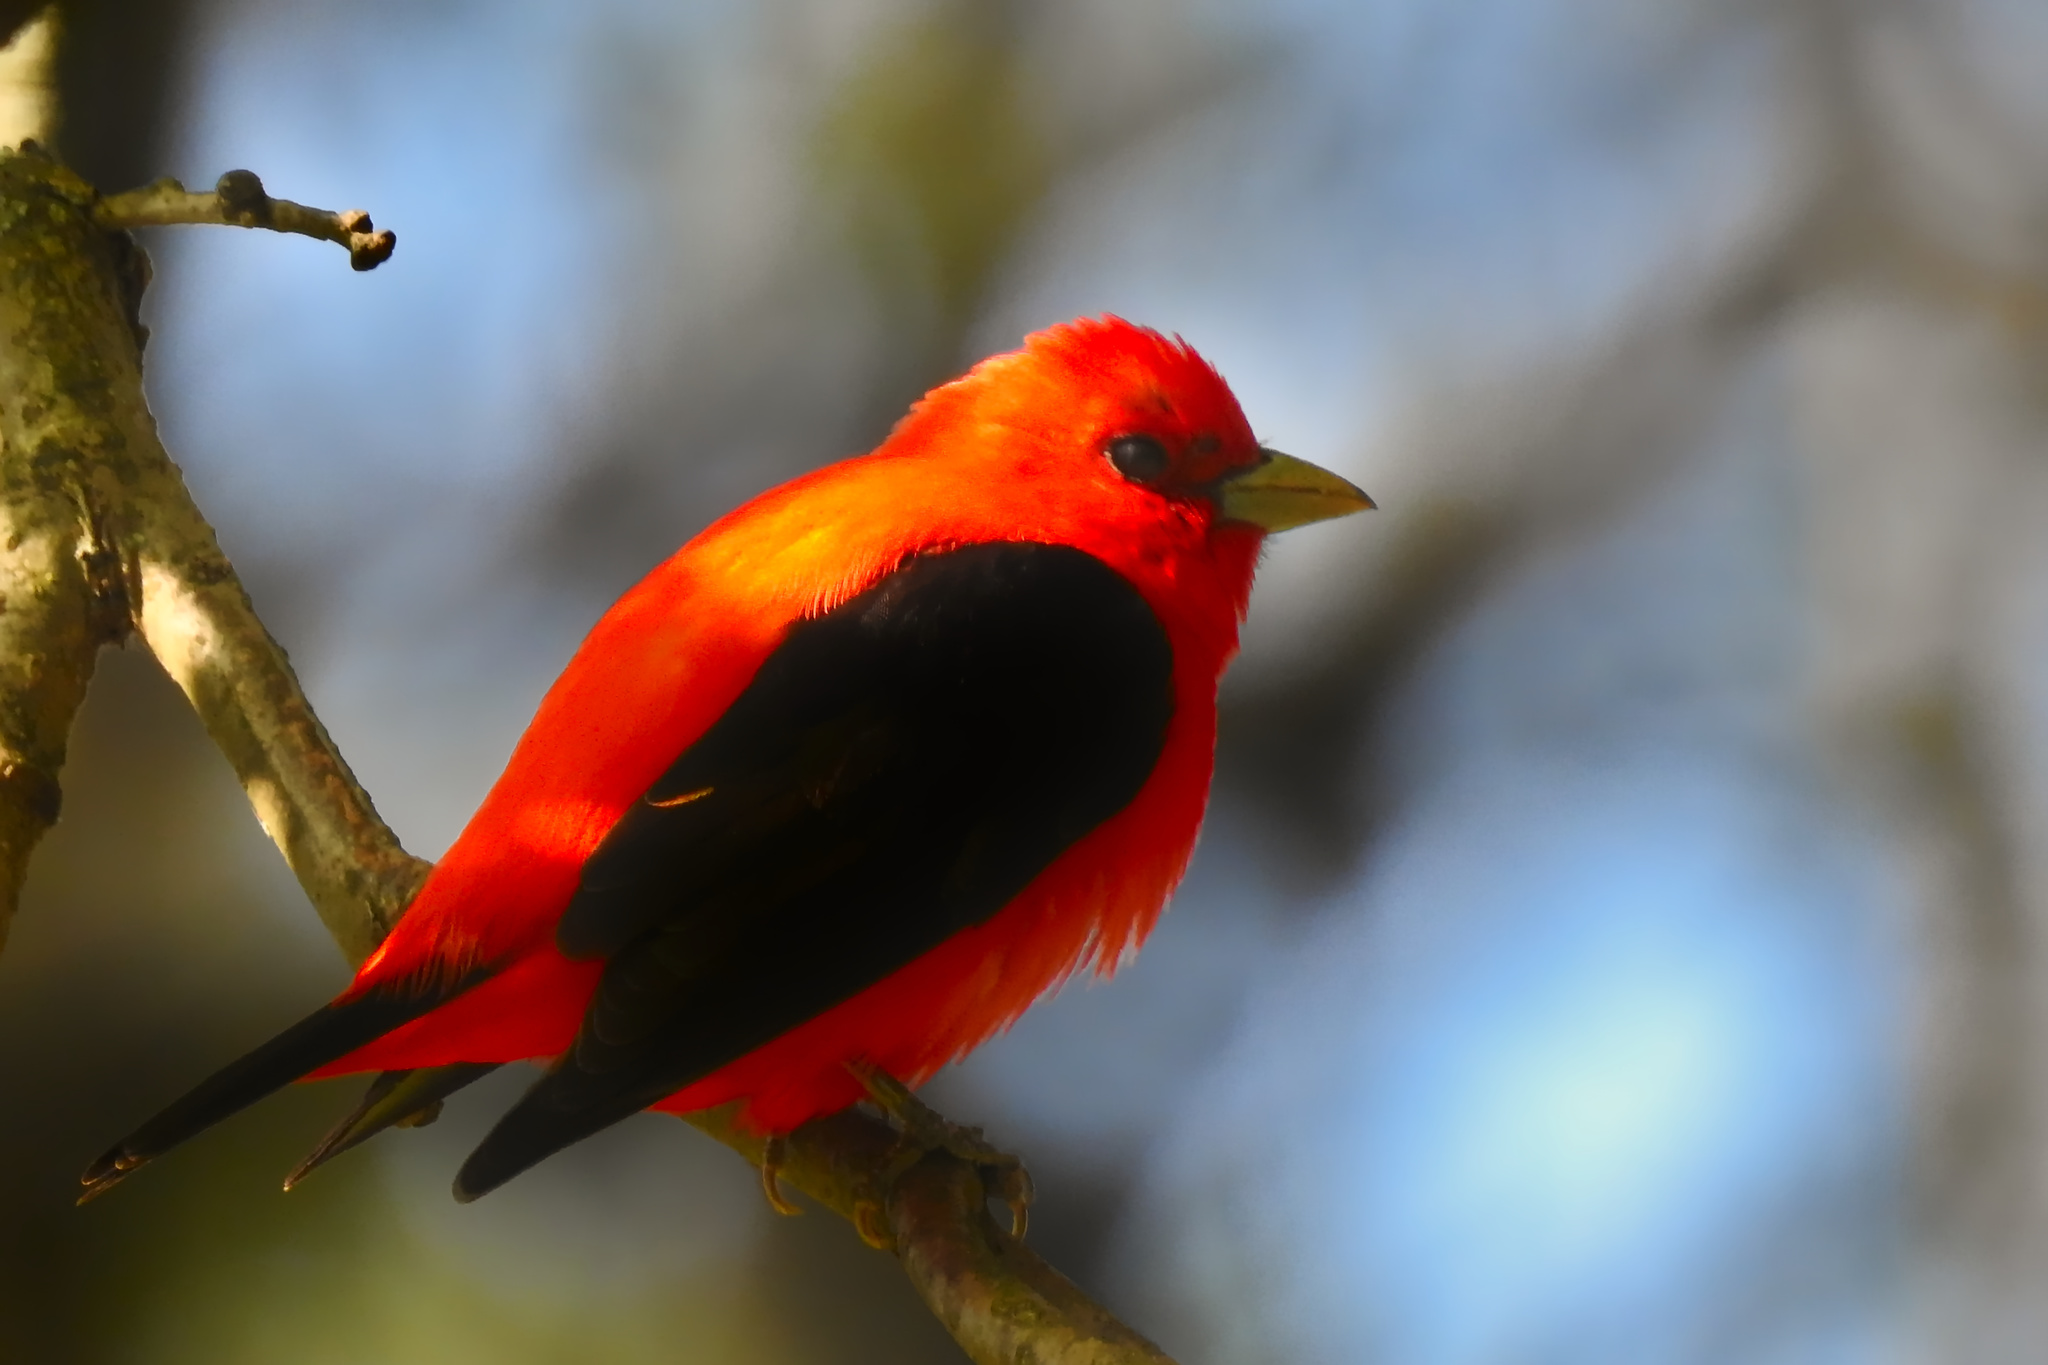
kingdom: Animalia
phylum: Chordata
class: Aves
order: Passeriformes
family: Cardinalidae
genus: Piranga
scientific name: Piranga olivacea
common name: Scarlet tanager
